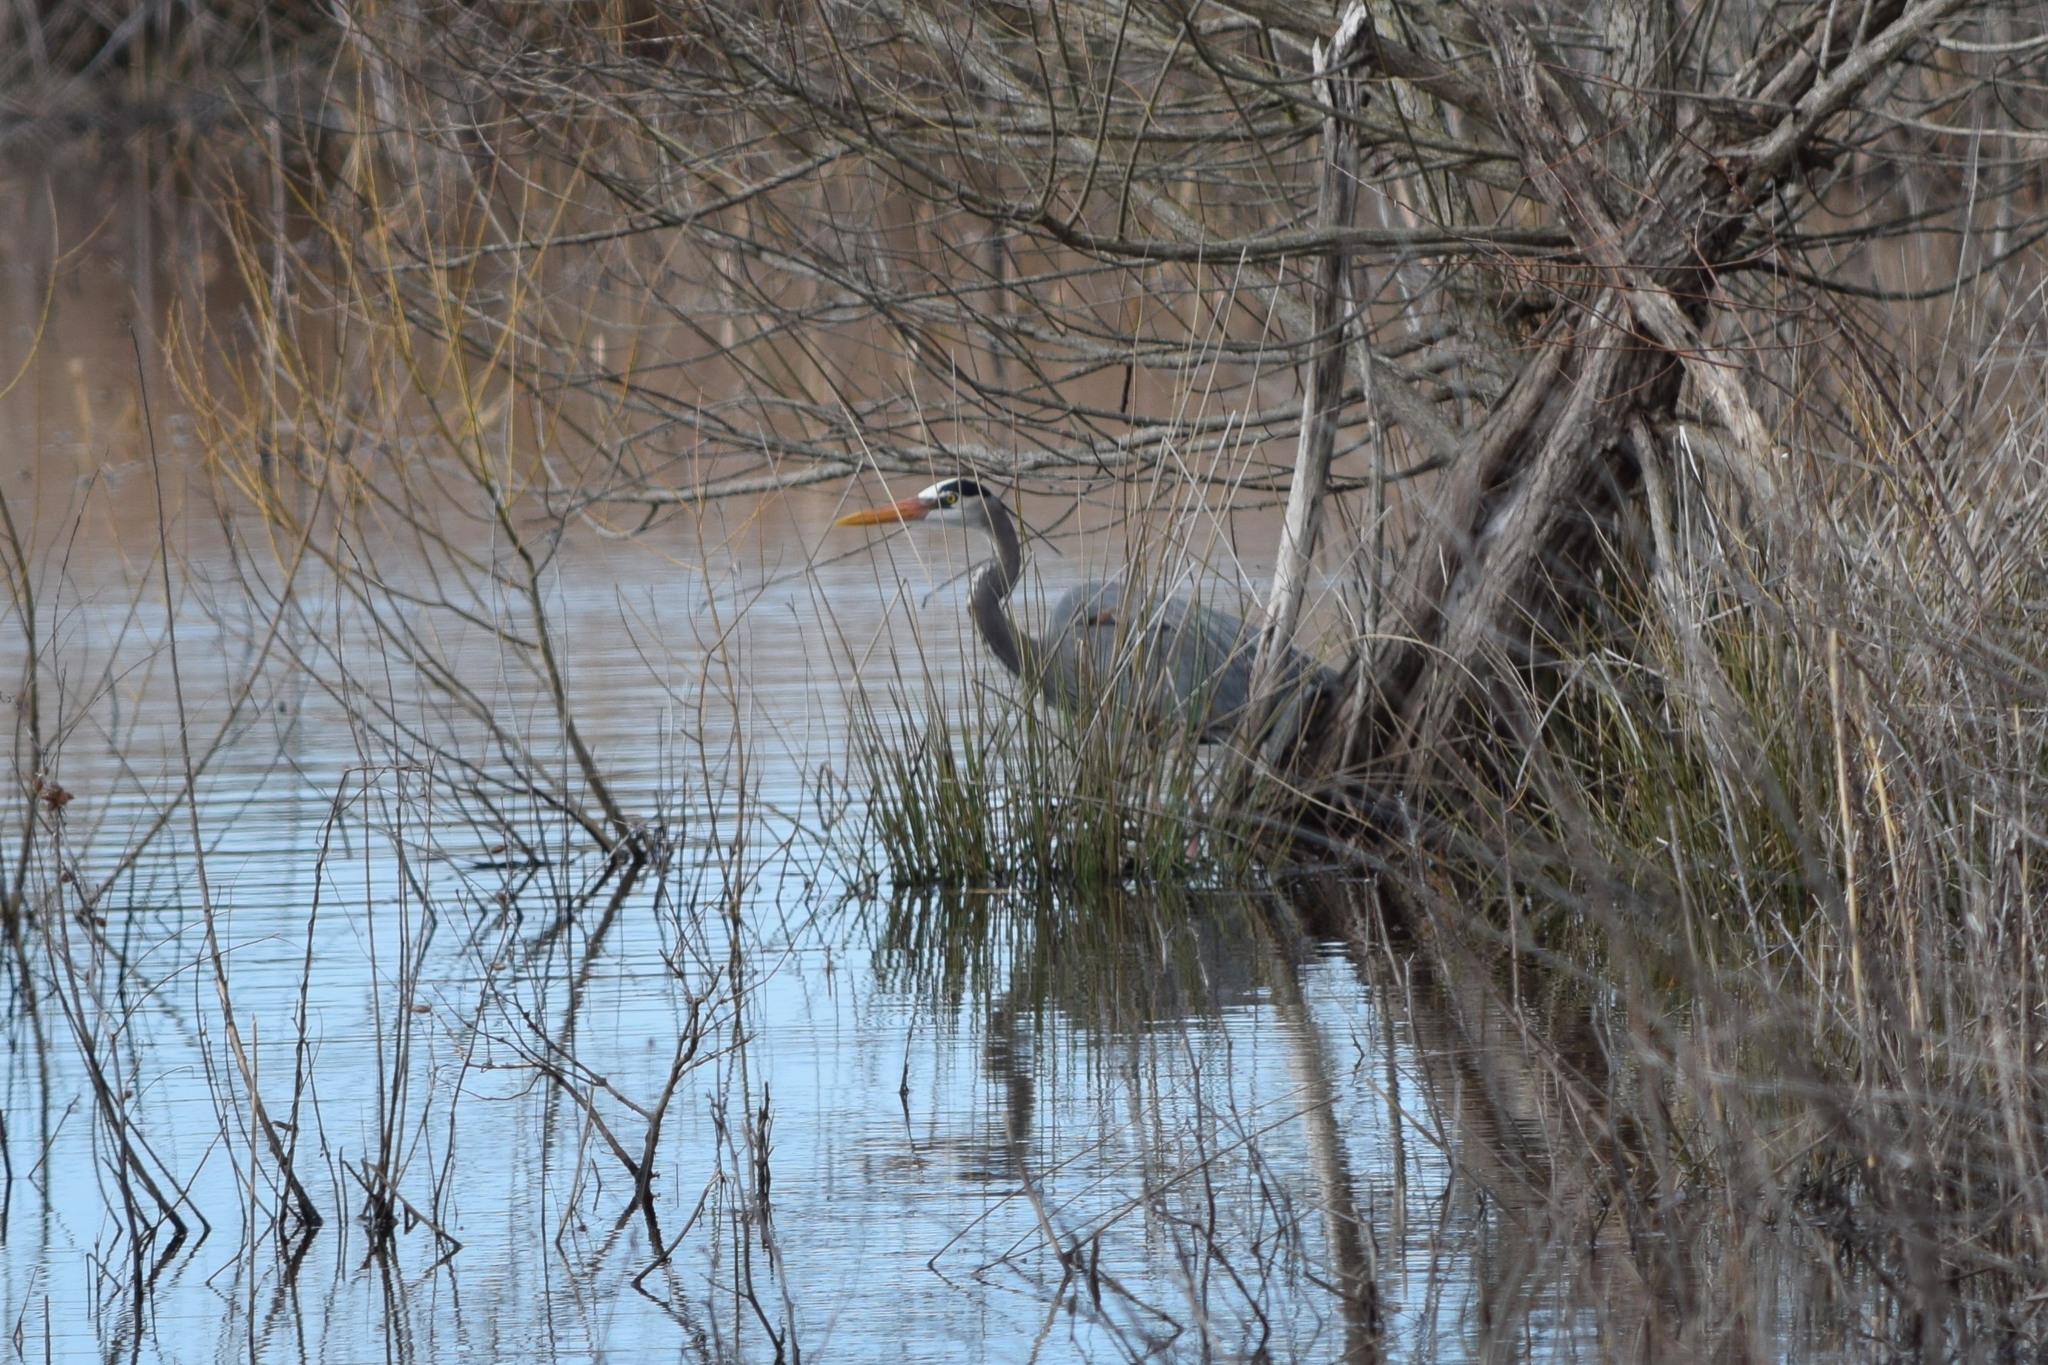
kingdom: Animalia
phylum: Chordata
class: Aves
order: Pelecaniformes
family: Ardeidae
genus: Ardea
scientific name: Ardea herodias
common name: Great blue heron
